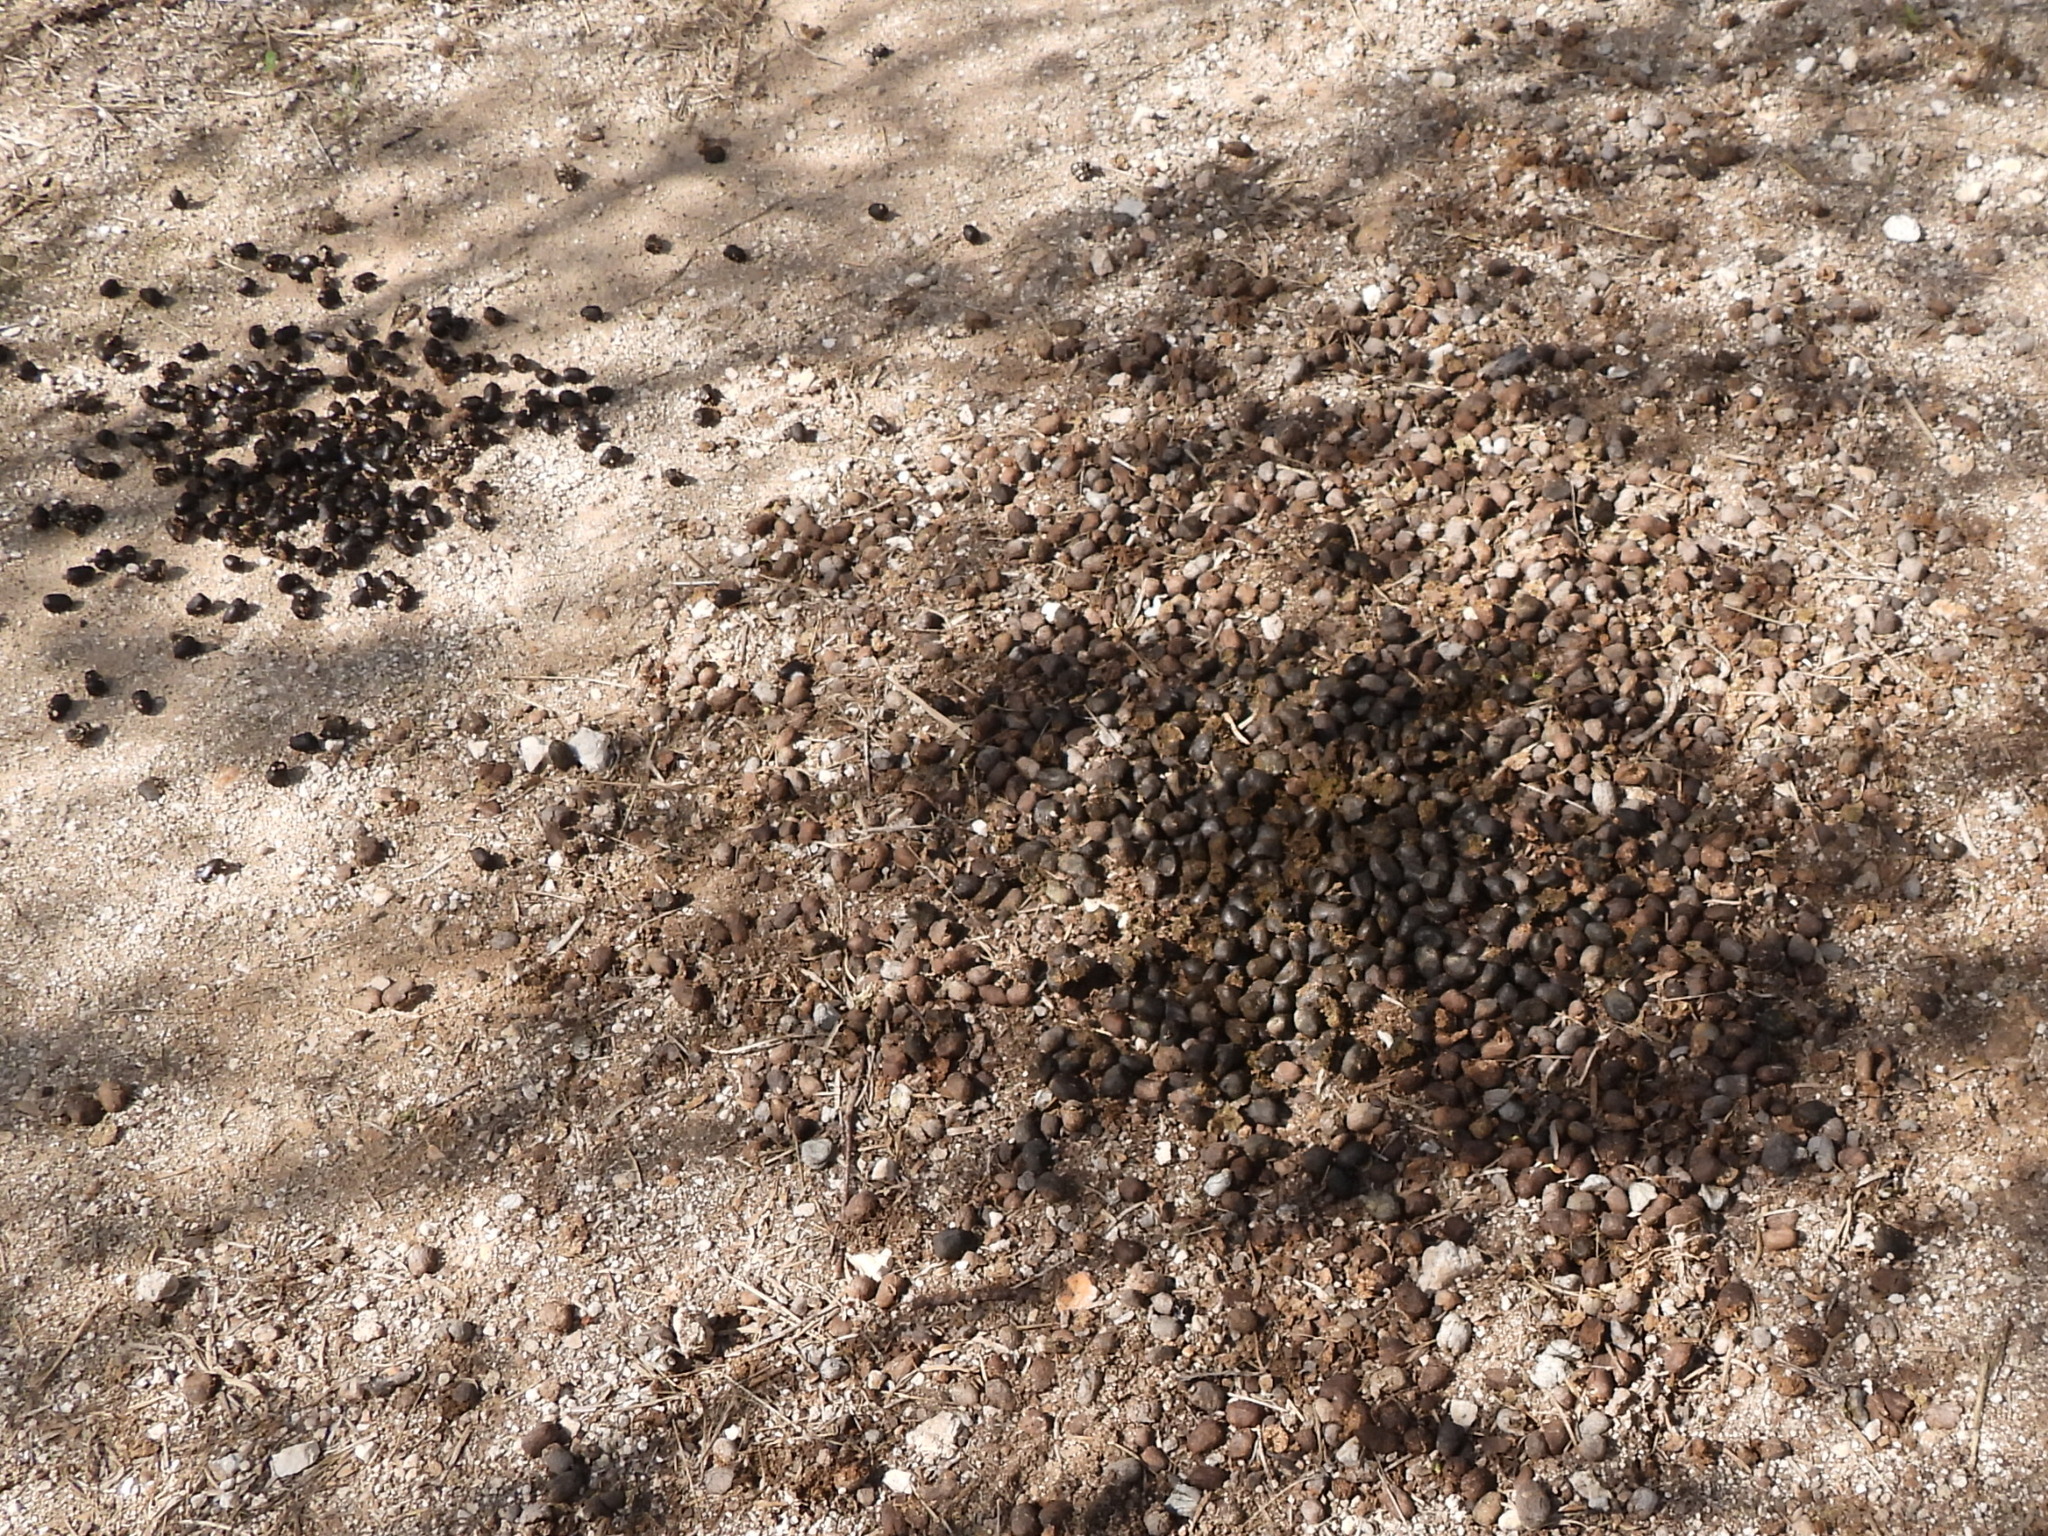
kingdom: Animalia
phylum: Chordata
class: Mammalia
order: Artiodactyla
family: Bovidae
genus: Boselaphus
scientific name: Boselaphus tragocamelus
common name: Nilgai
